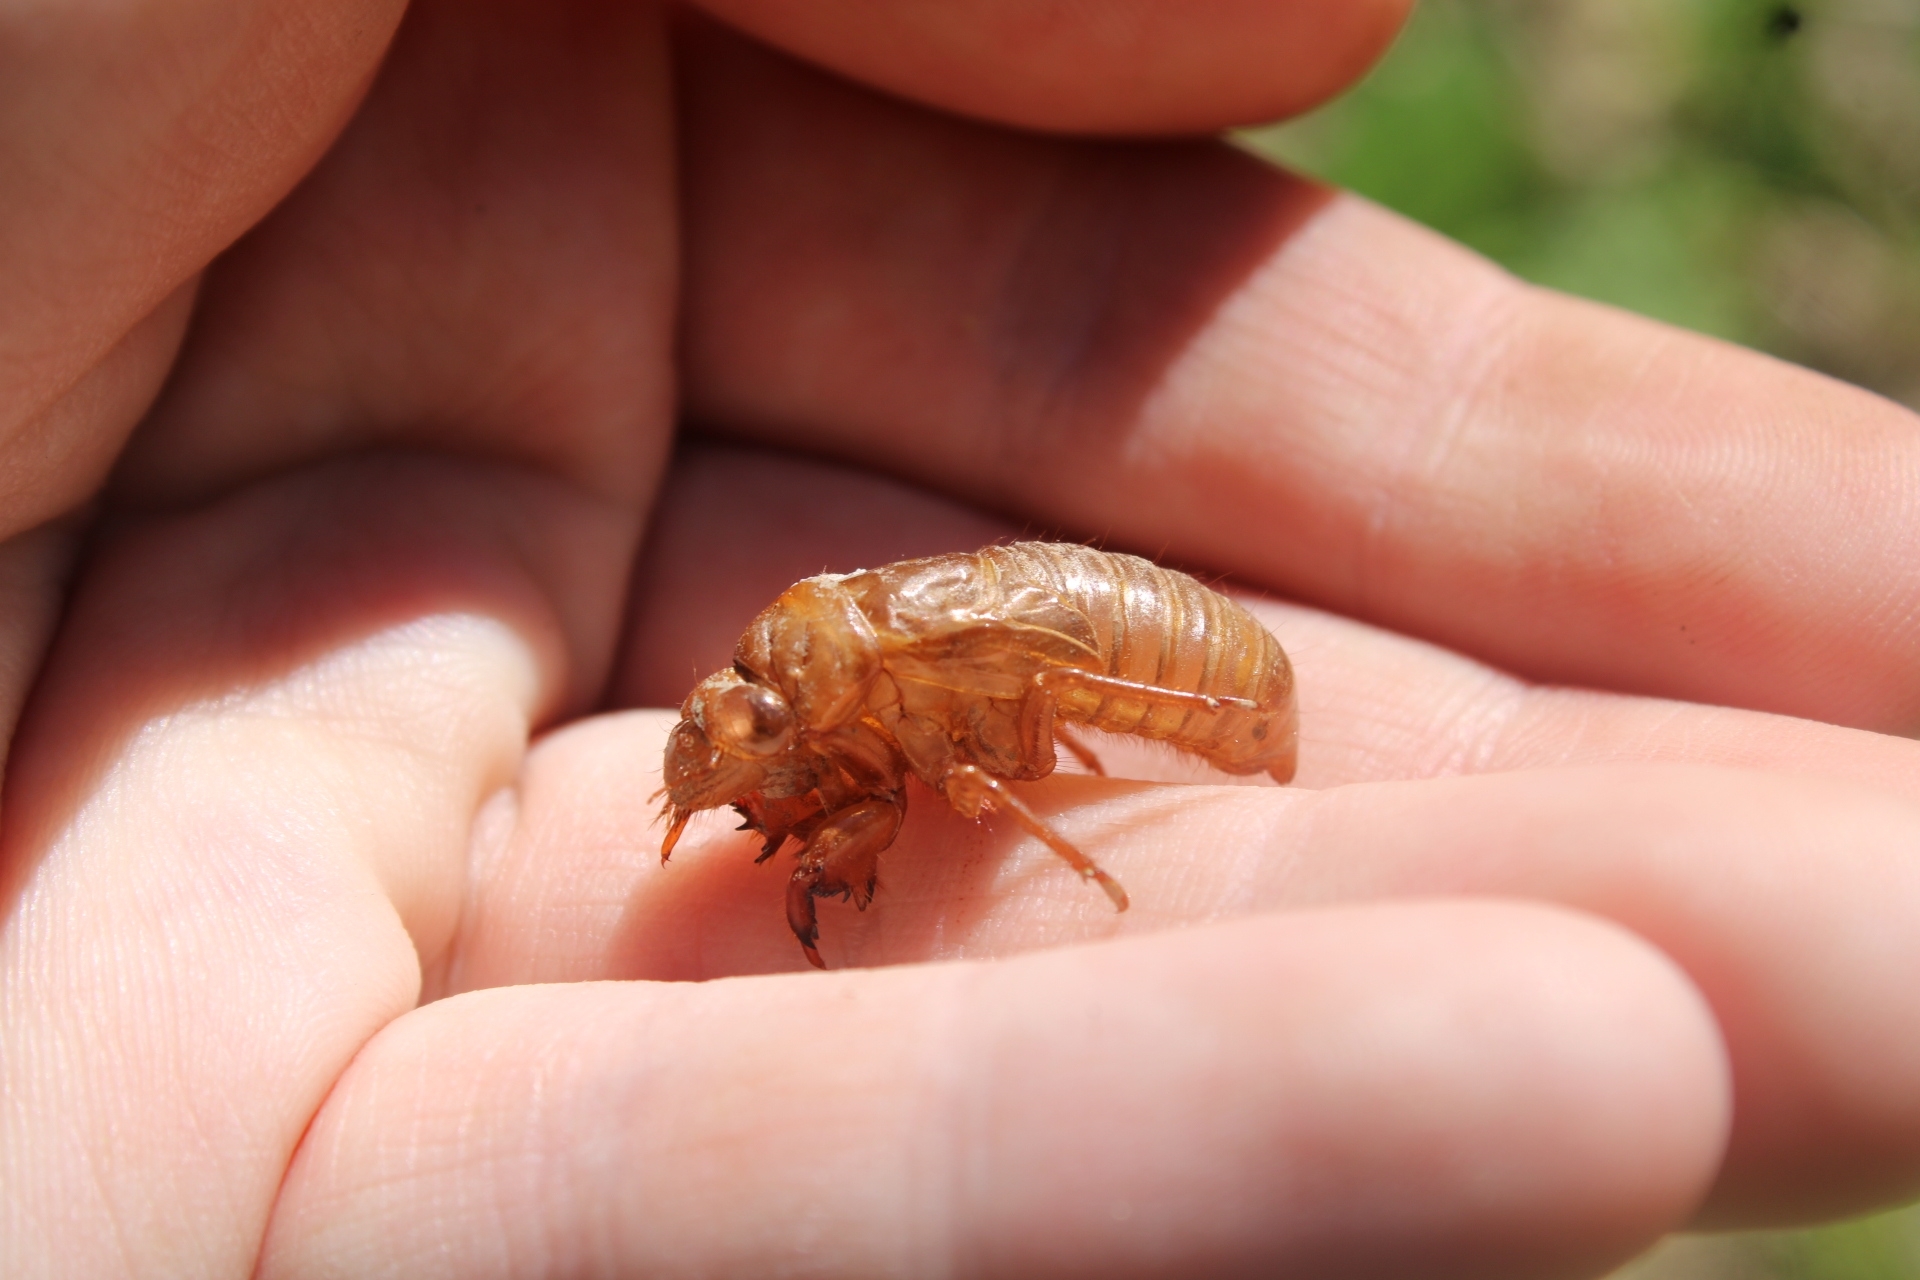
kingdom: Animalia
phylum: Arthropoda
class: Insecta
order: Hemiptera
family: Cicadidae
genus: Magicicada
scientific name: Magicicada
